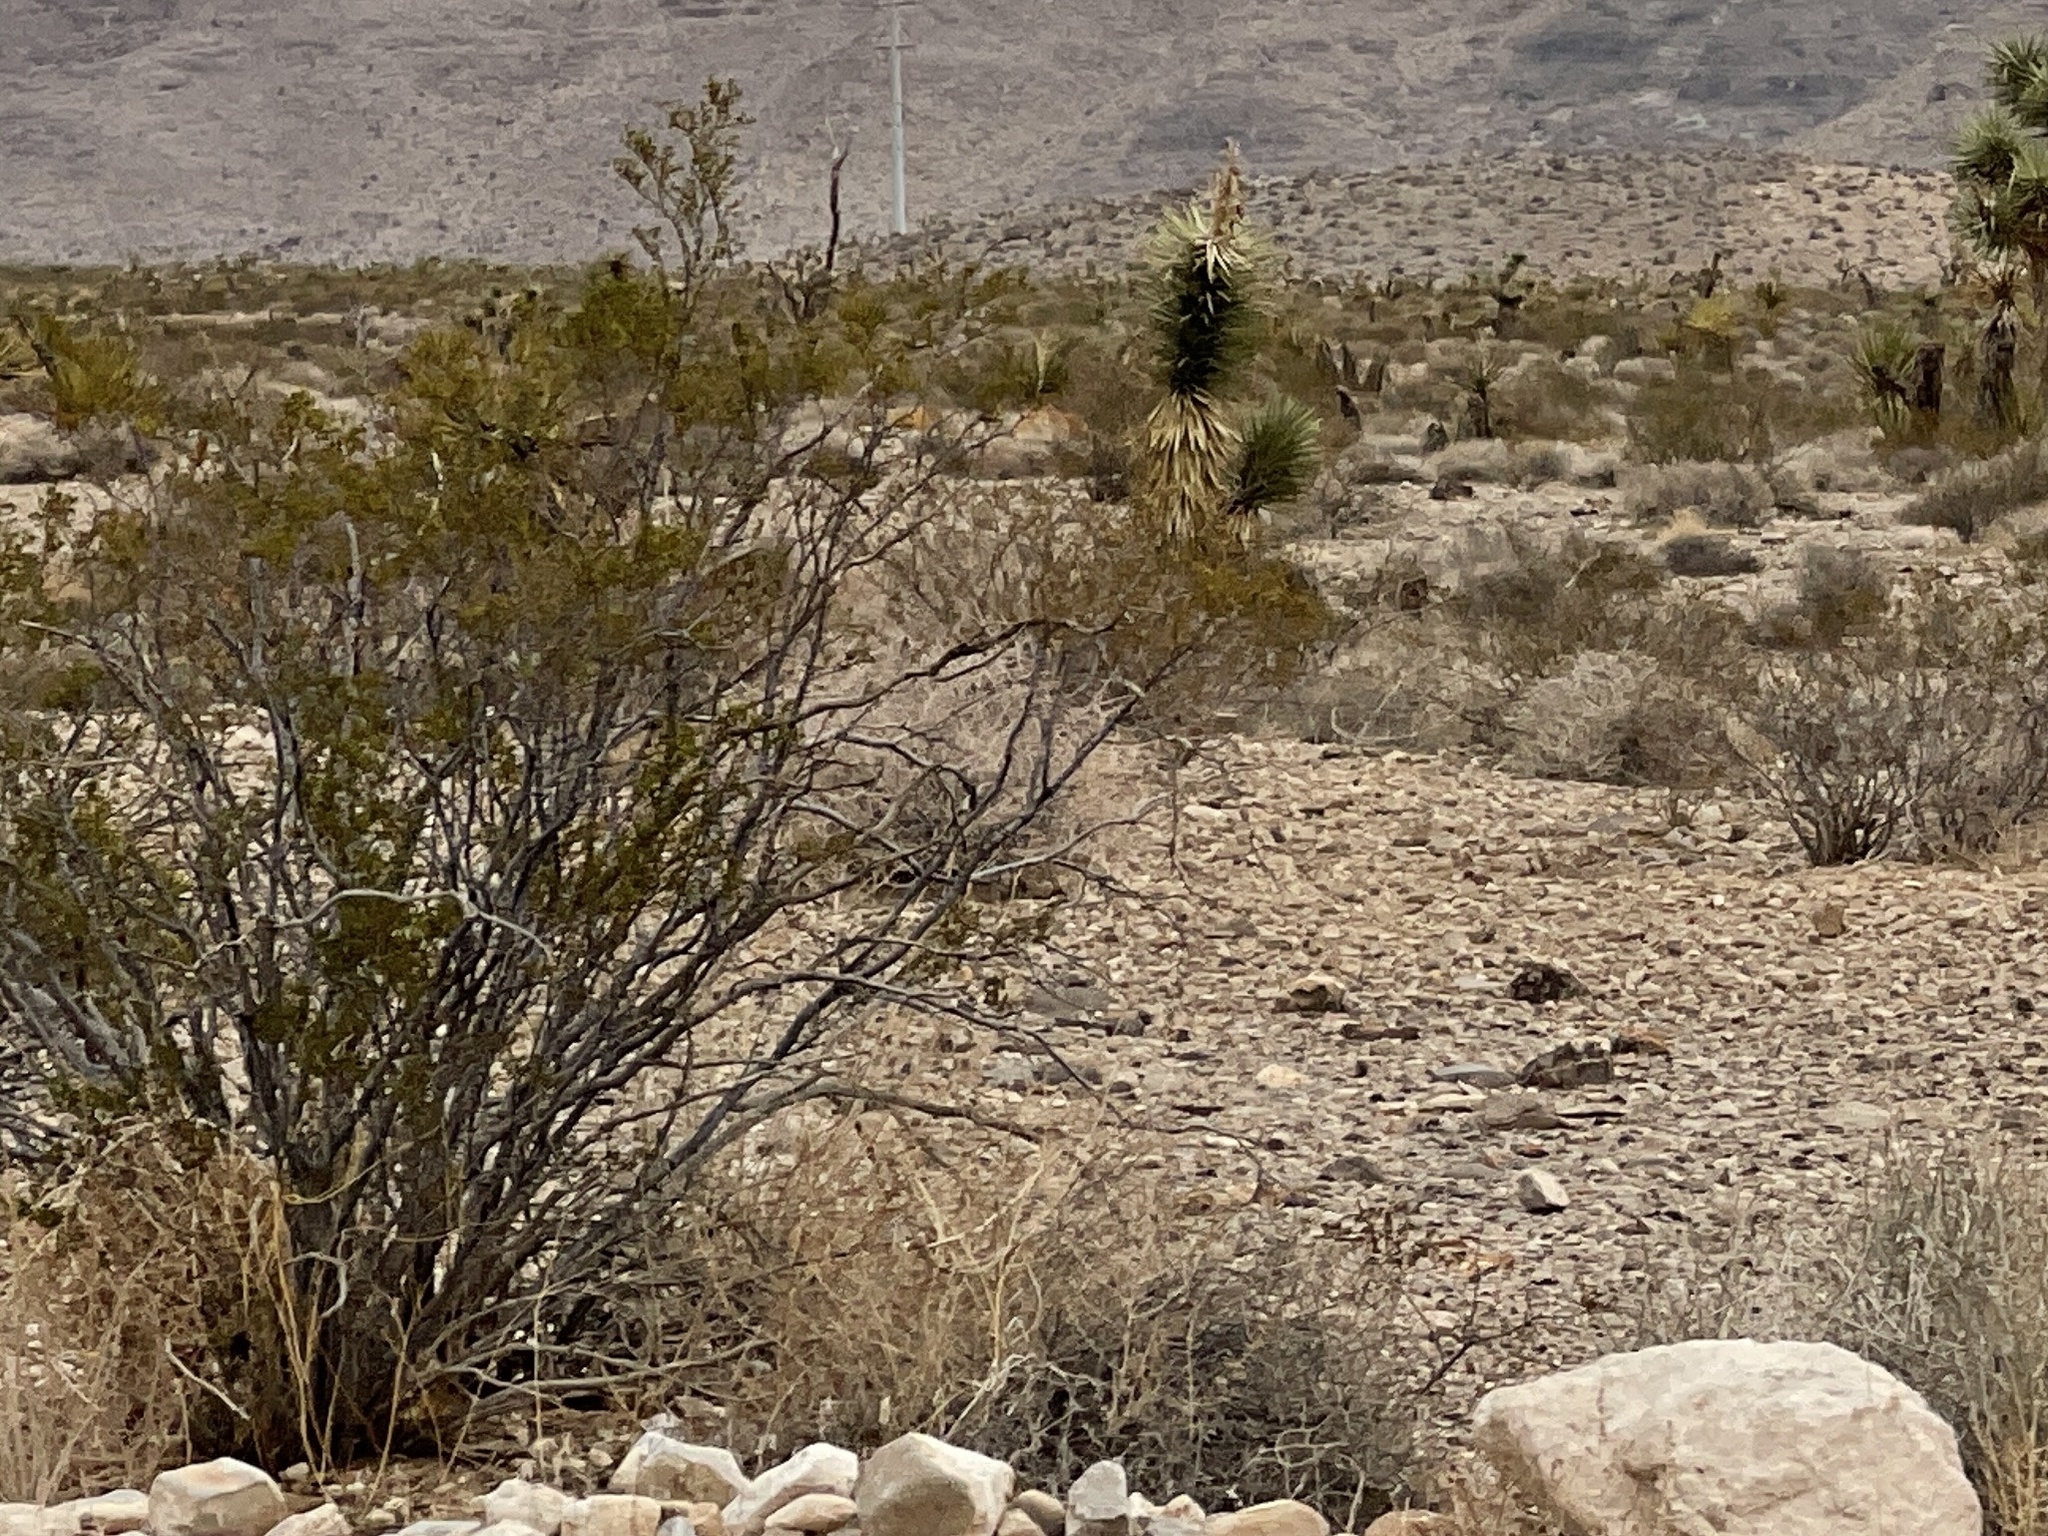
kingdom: Plantae
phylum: Tracheophyta
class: Magnoliopsida
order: Zygophyllales
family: Zygophyllaceae
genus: Larrea
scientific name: Larrea tridentata
